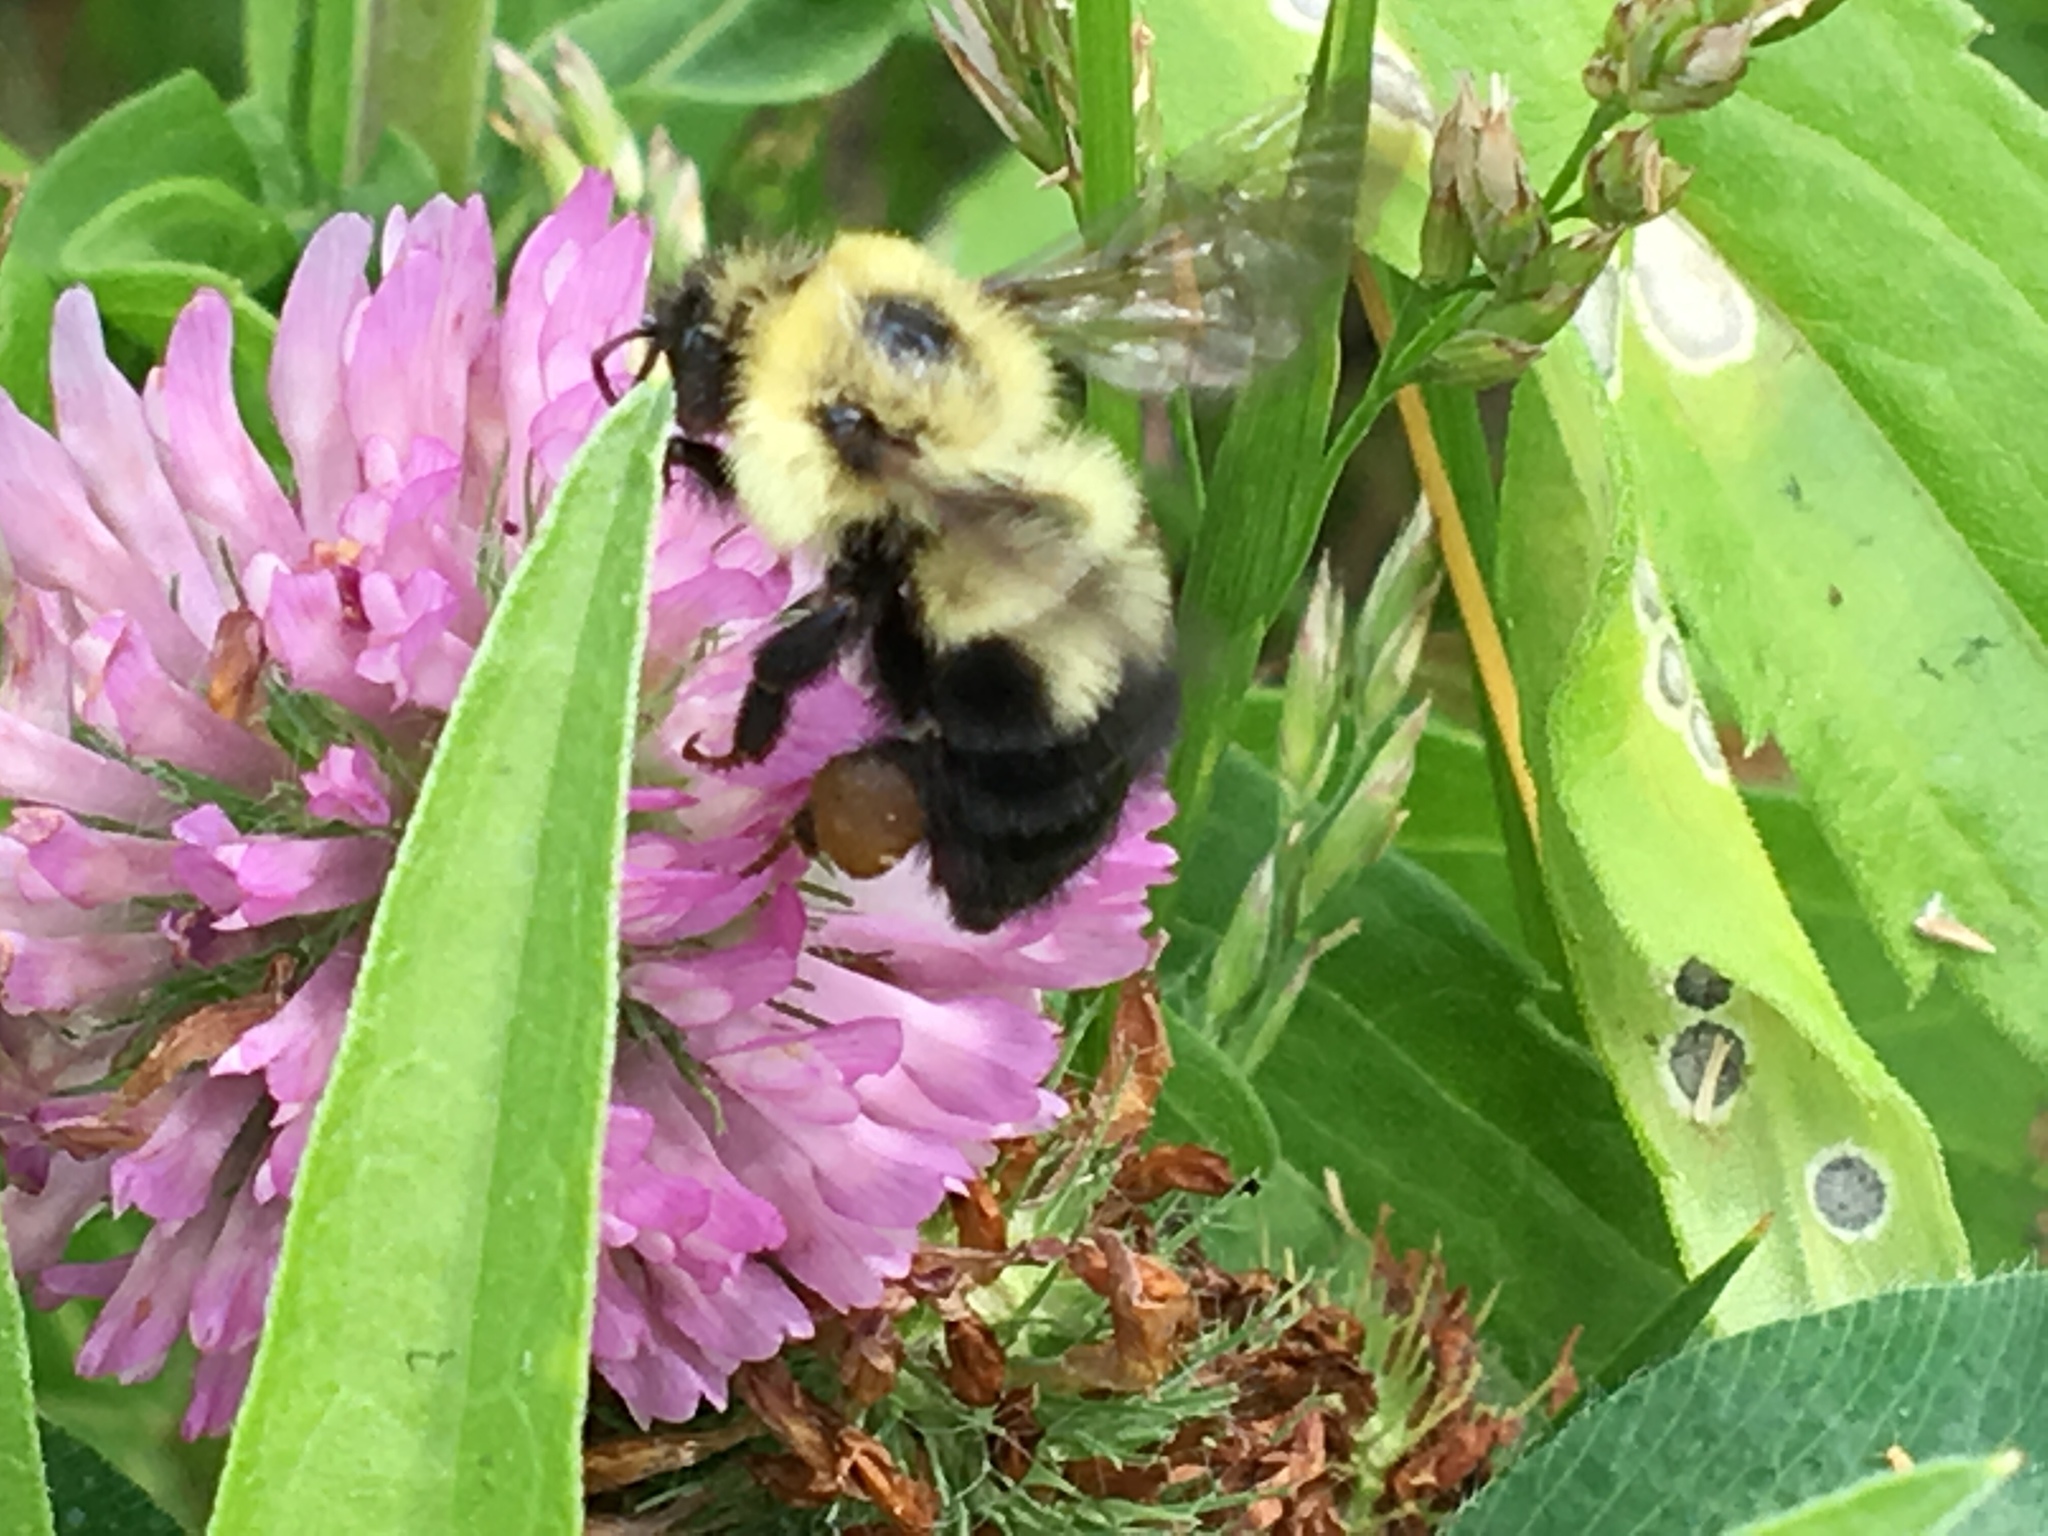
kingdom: Animalia
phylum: Arthropoda
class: Insecta
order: Hymenoptera
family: Apidae
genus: Bombus
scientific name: Bombus bimaculatus
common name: Two-spotted bumble bee
